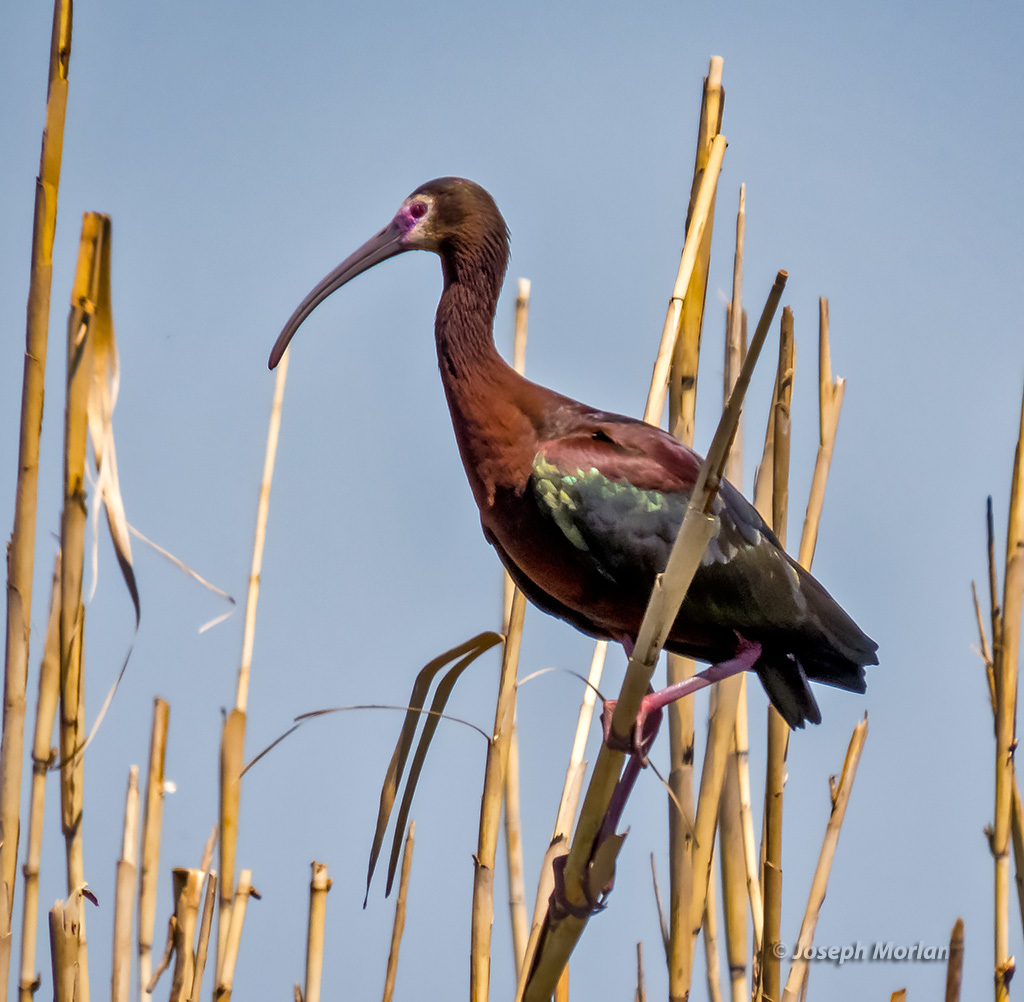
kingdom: Animalia
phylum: Chordata
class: Aves
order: Pelecaniformes
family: Threskiornithidae
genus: Plegadis
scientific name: Plegadis chihi
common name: White-faced ibis
